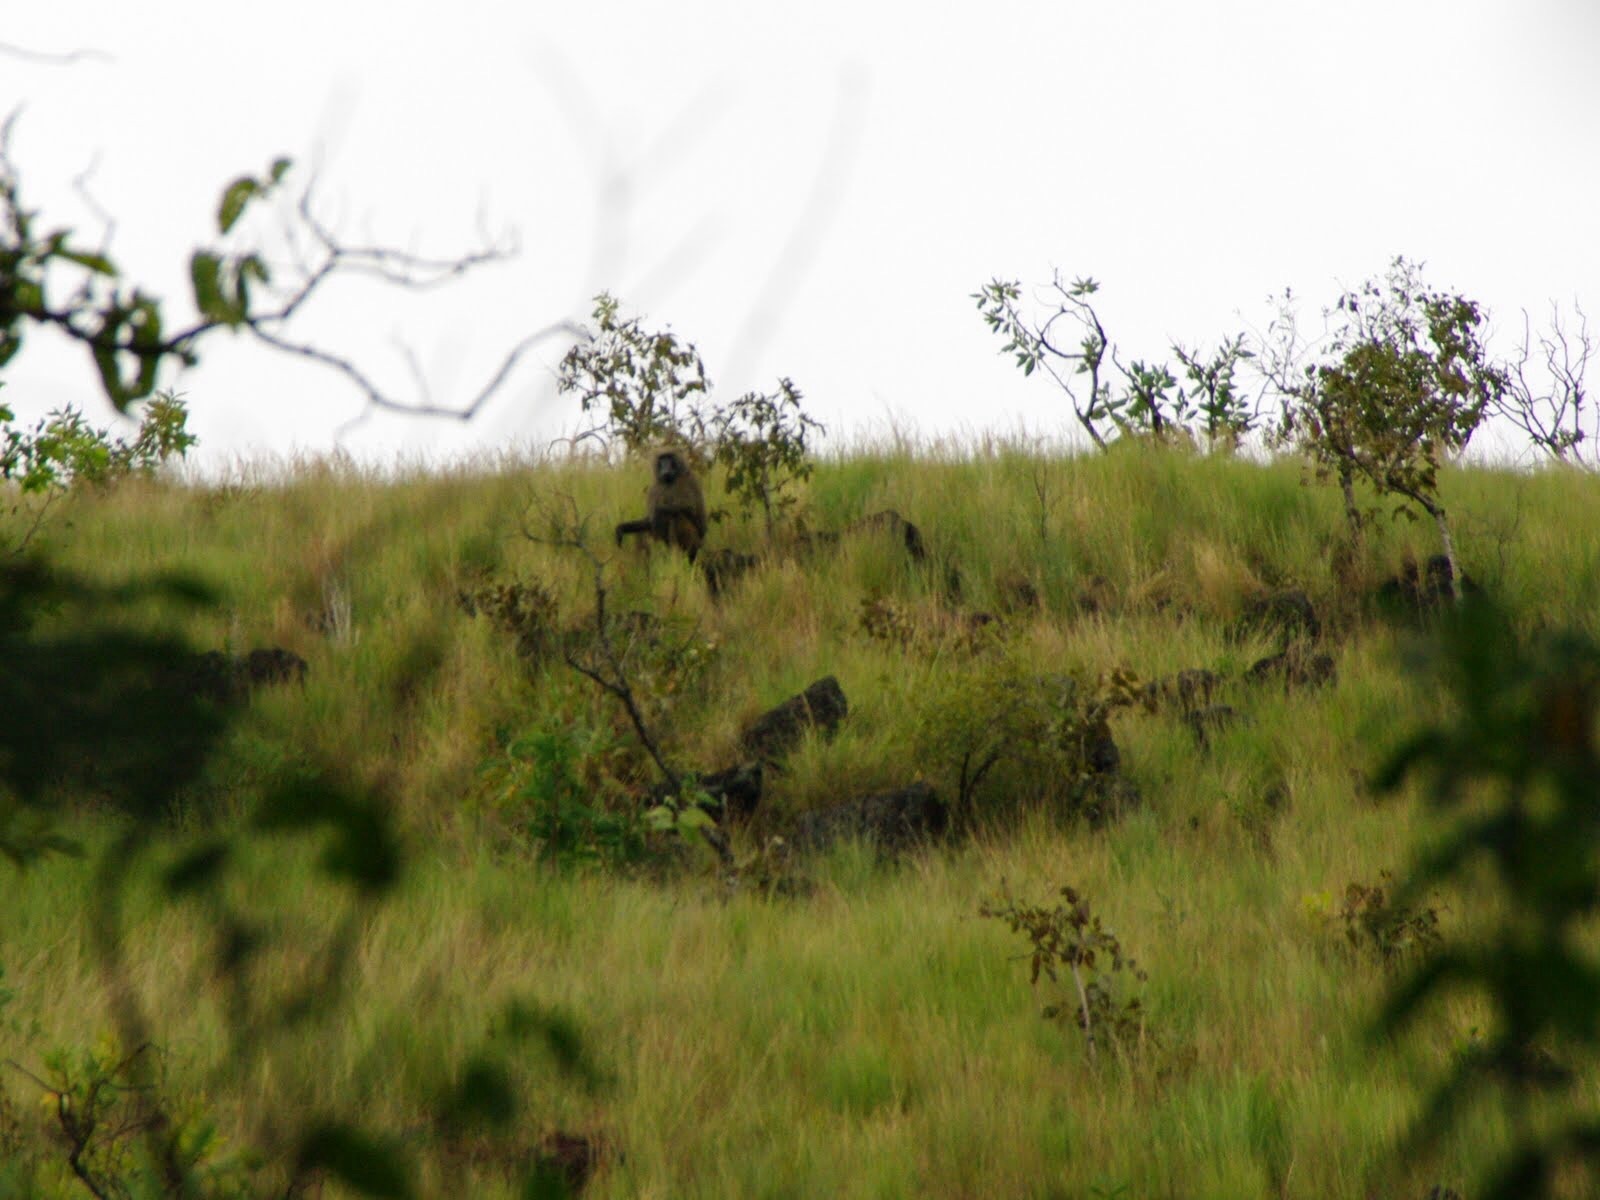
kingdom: Animalia
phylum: Chordata
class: Mammalia
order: Primates
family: Cercopithecidae
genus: Papio
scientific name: Papio anubis
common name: Olive baboon
